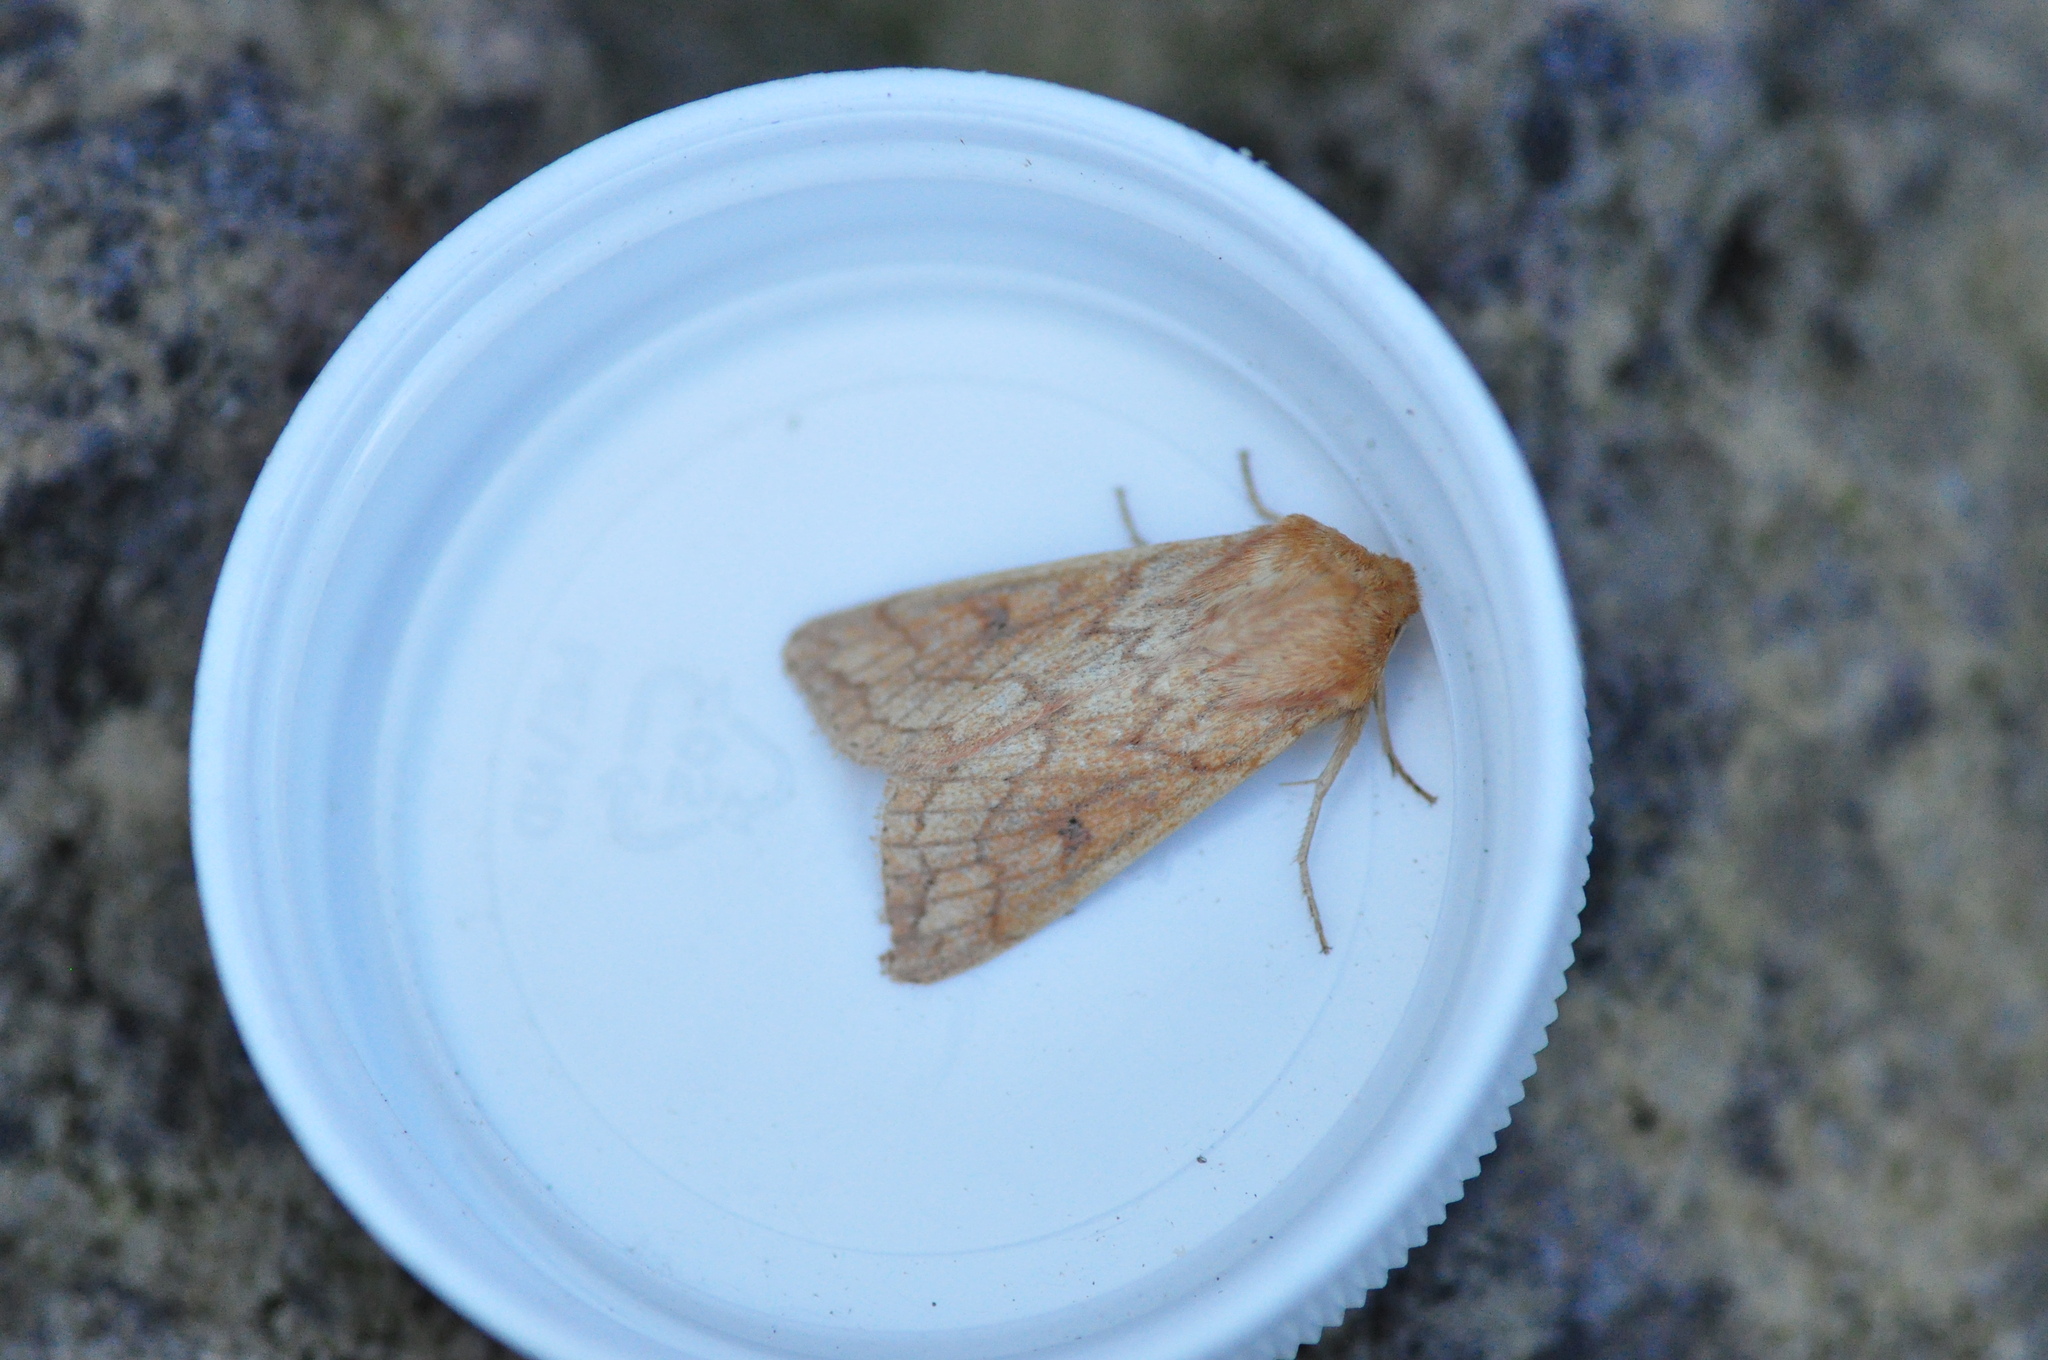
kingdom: Animalia
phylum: Arthropoda
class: Insecta
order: Lepidoptera
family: Noctuidae
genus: Mythimna
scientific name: Mythimna vitellina
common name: Delicate
